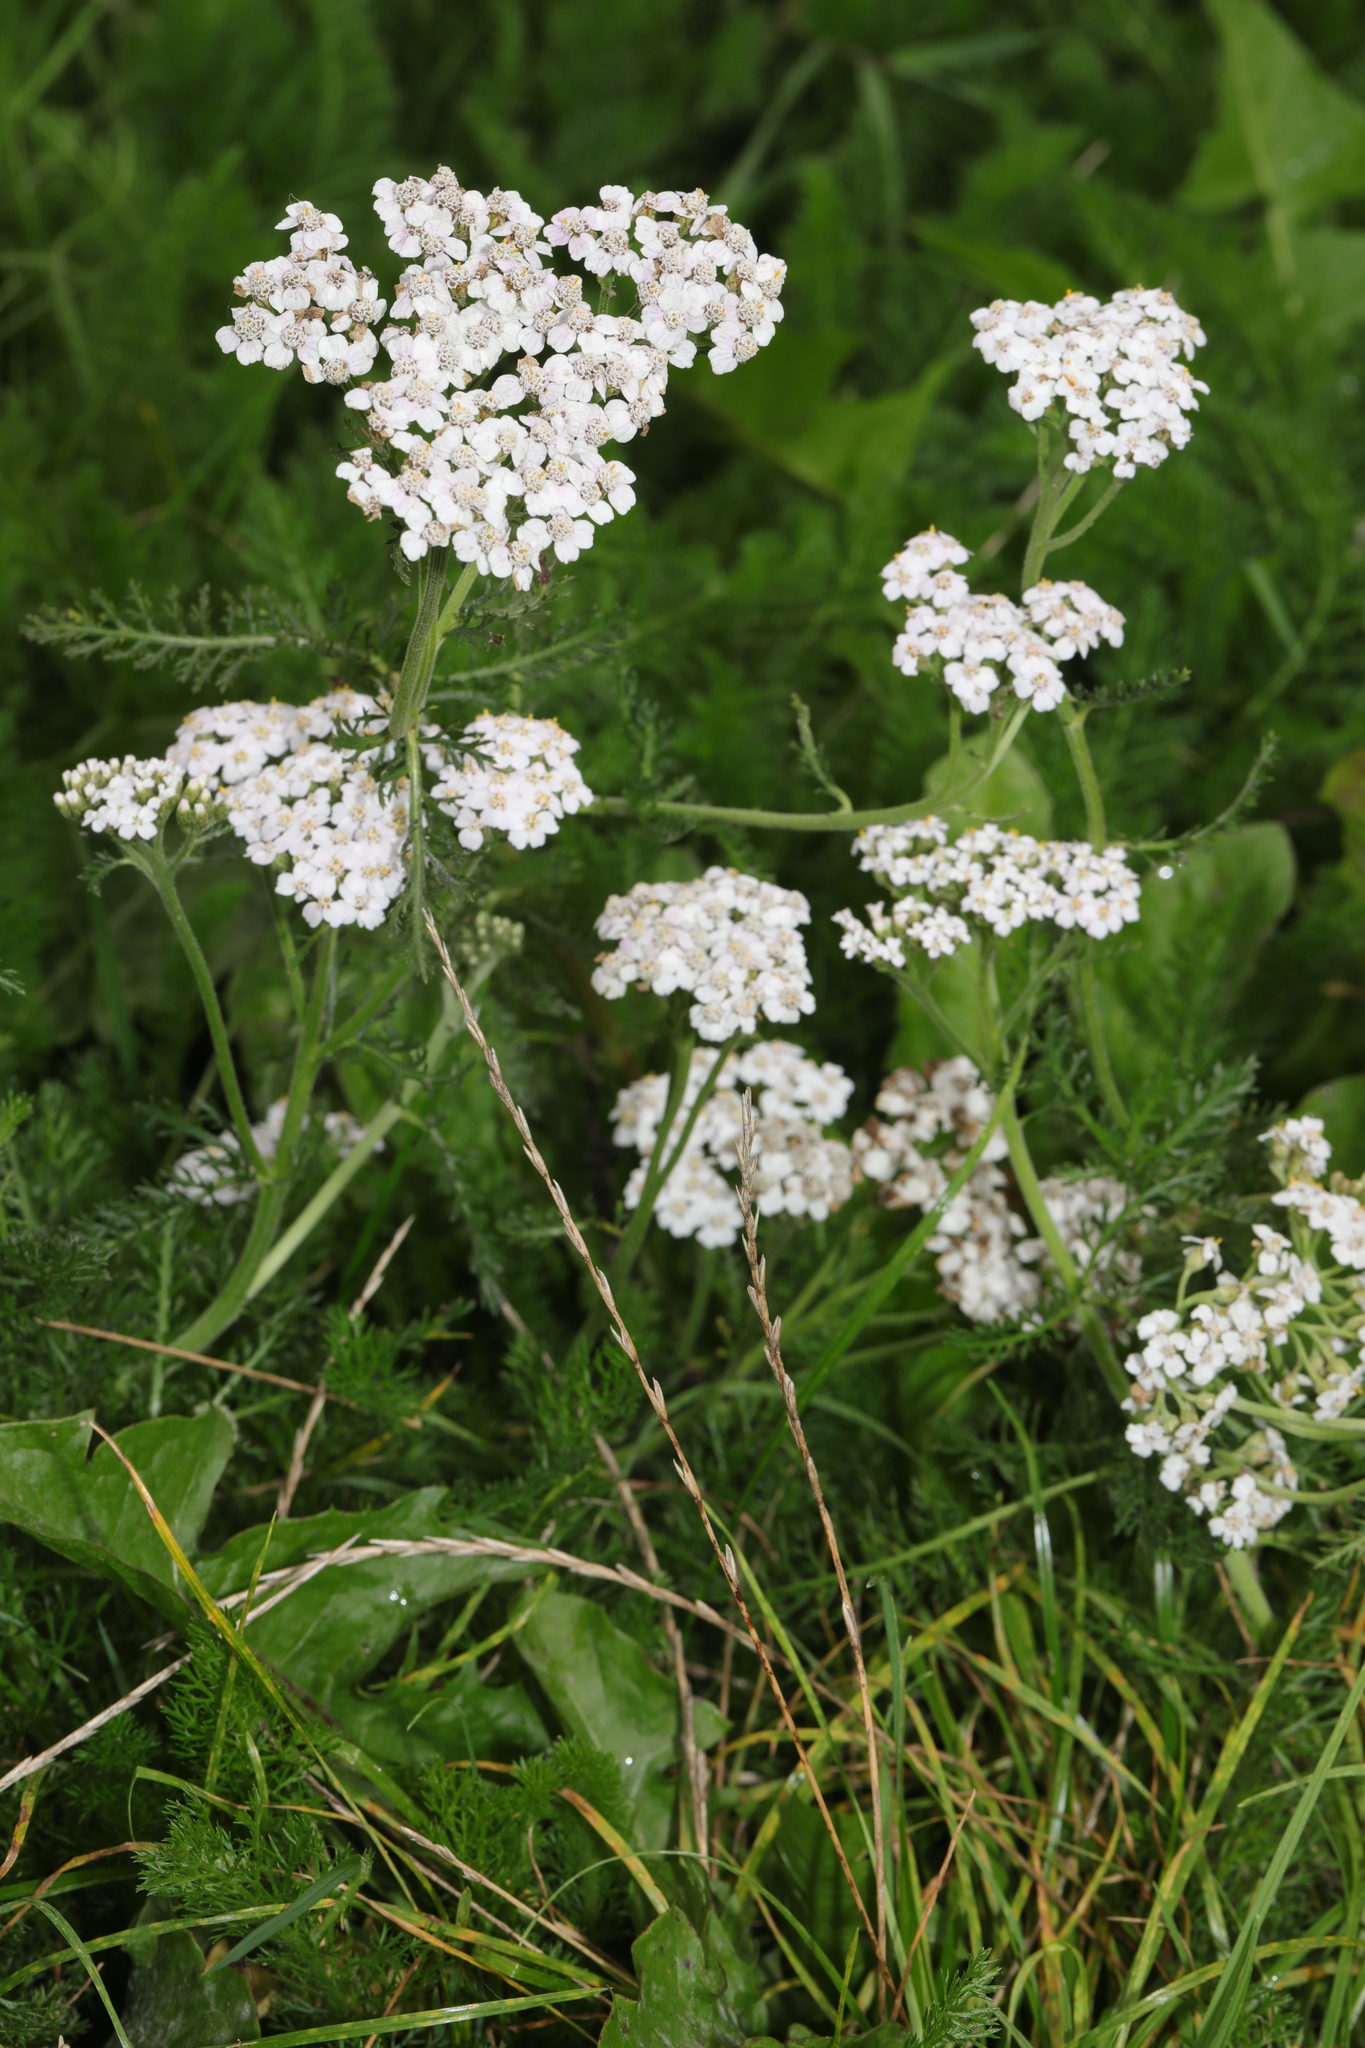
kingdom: Plantae
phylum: Tracheophyta
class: Magnoliopsida
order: Asterales
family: Asteraceae
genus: Achillea
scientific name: Achillea millefolium
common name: Yarrow
